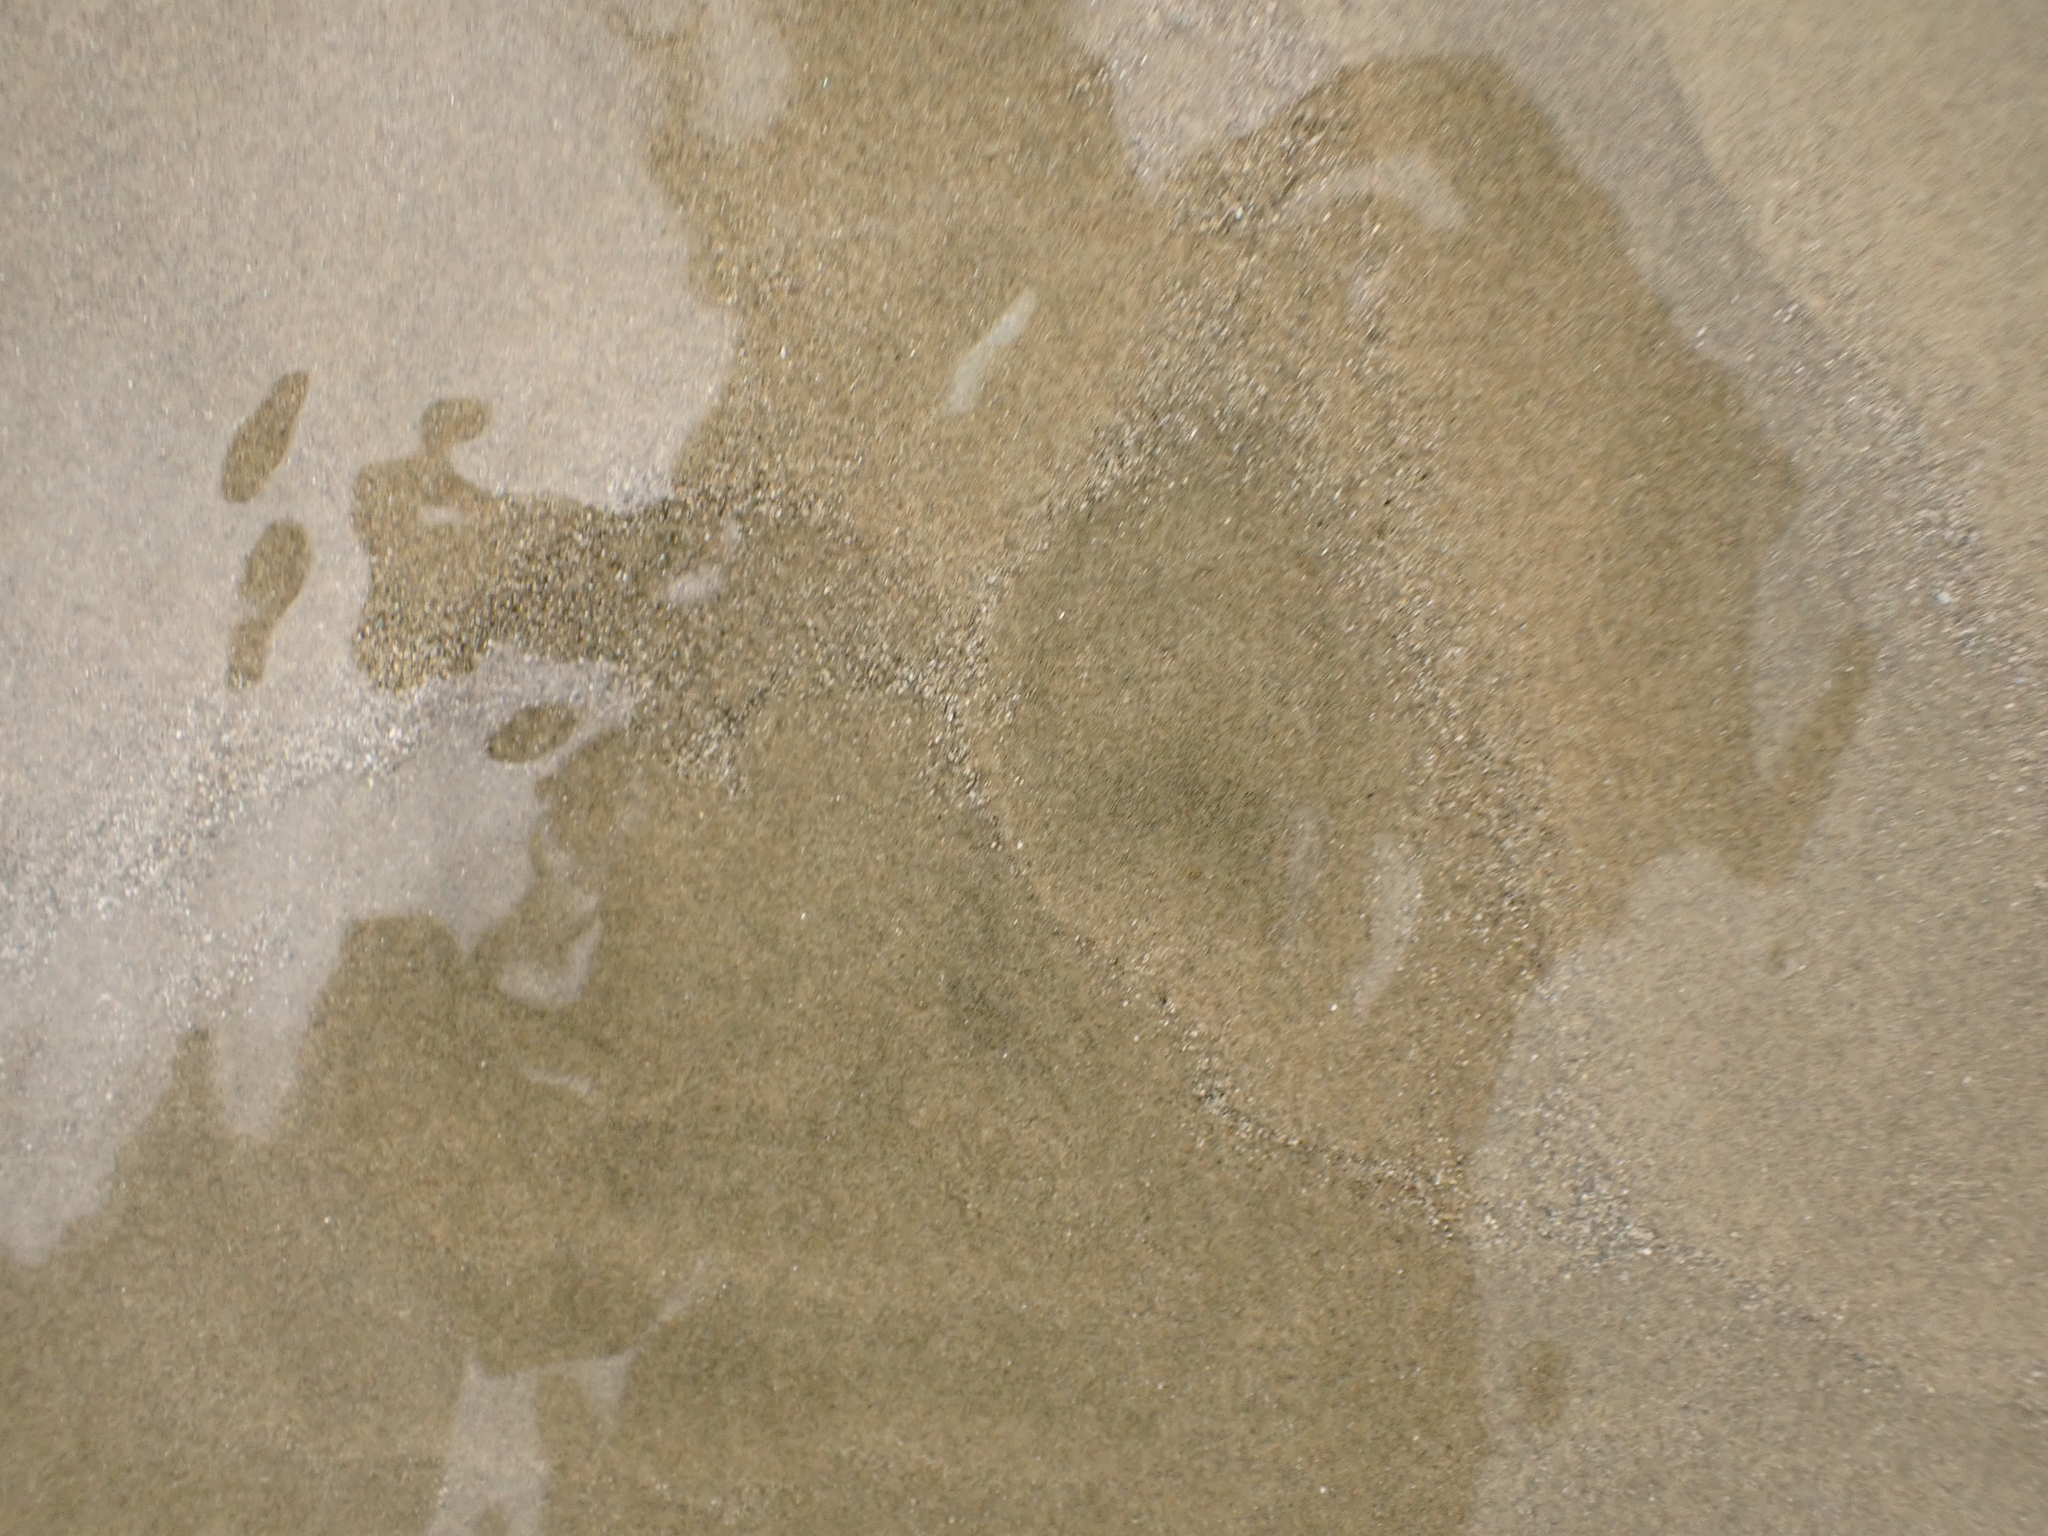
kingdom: Animalia
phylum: Mollusca
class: Bivalvia
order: Venerida
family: Mesodesmatidae
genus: Paphies
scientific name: Paphies ventricosa
